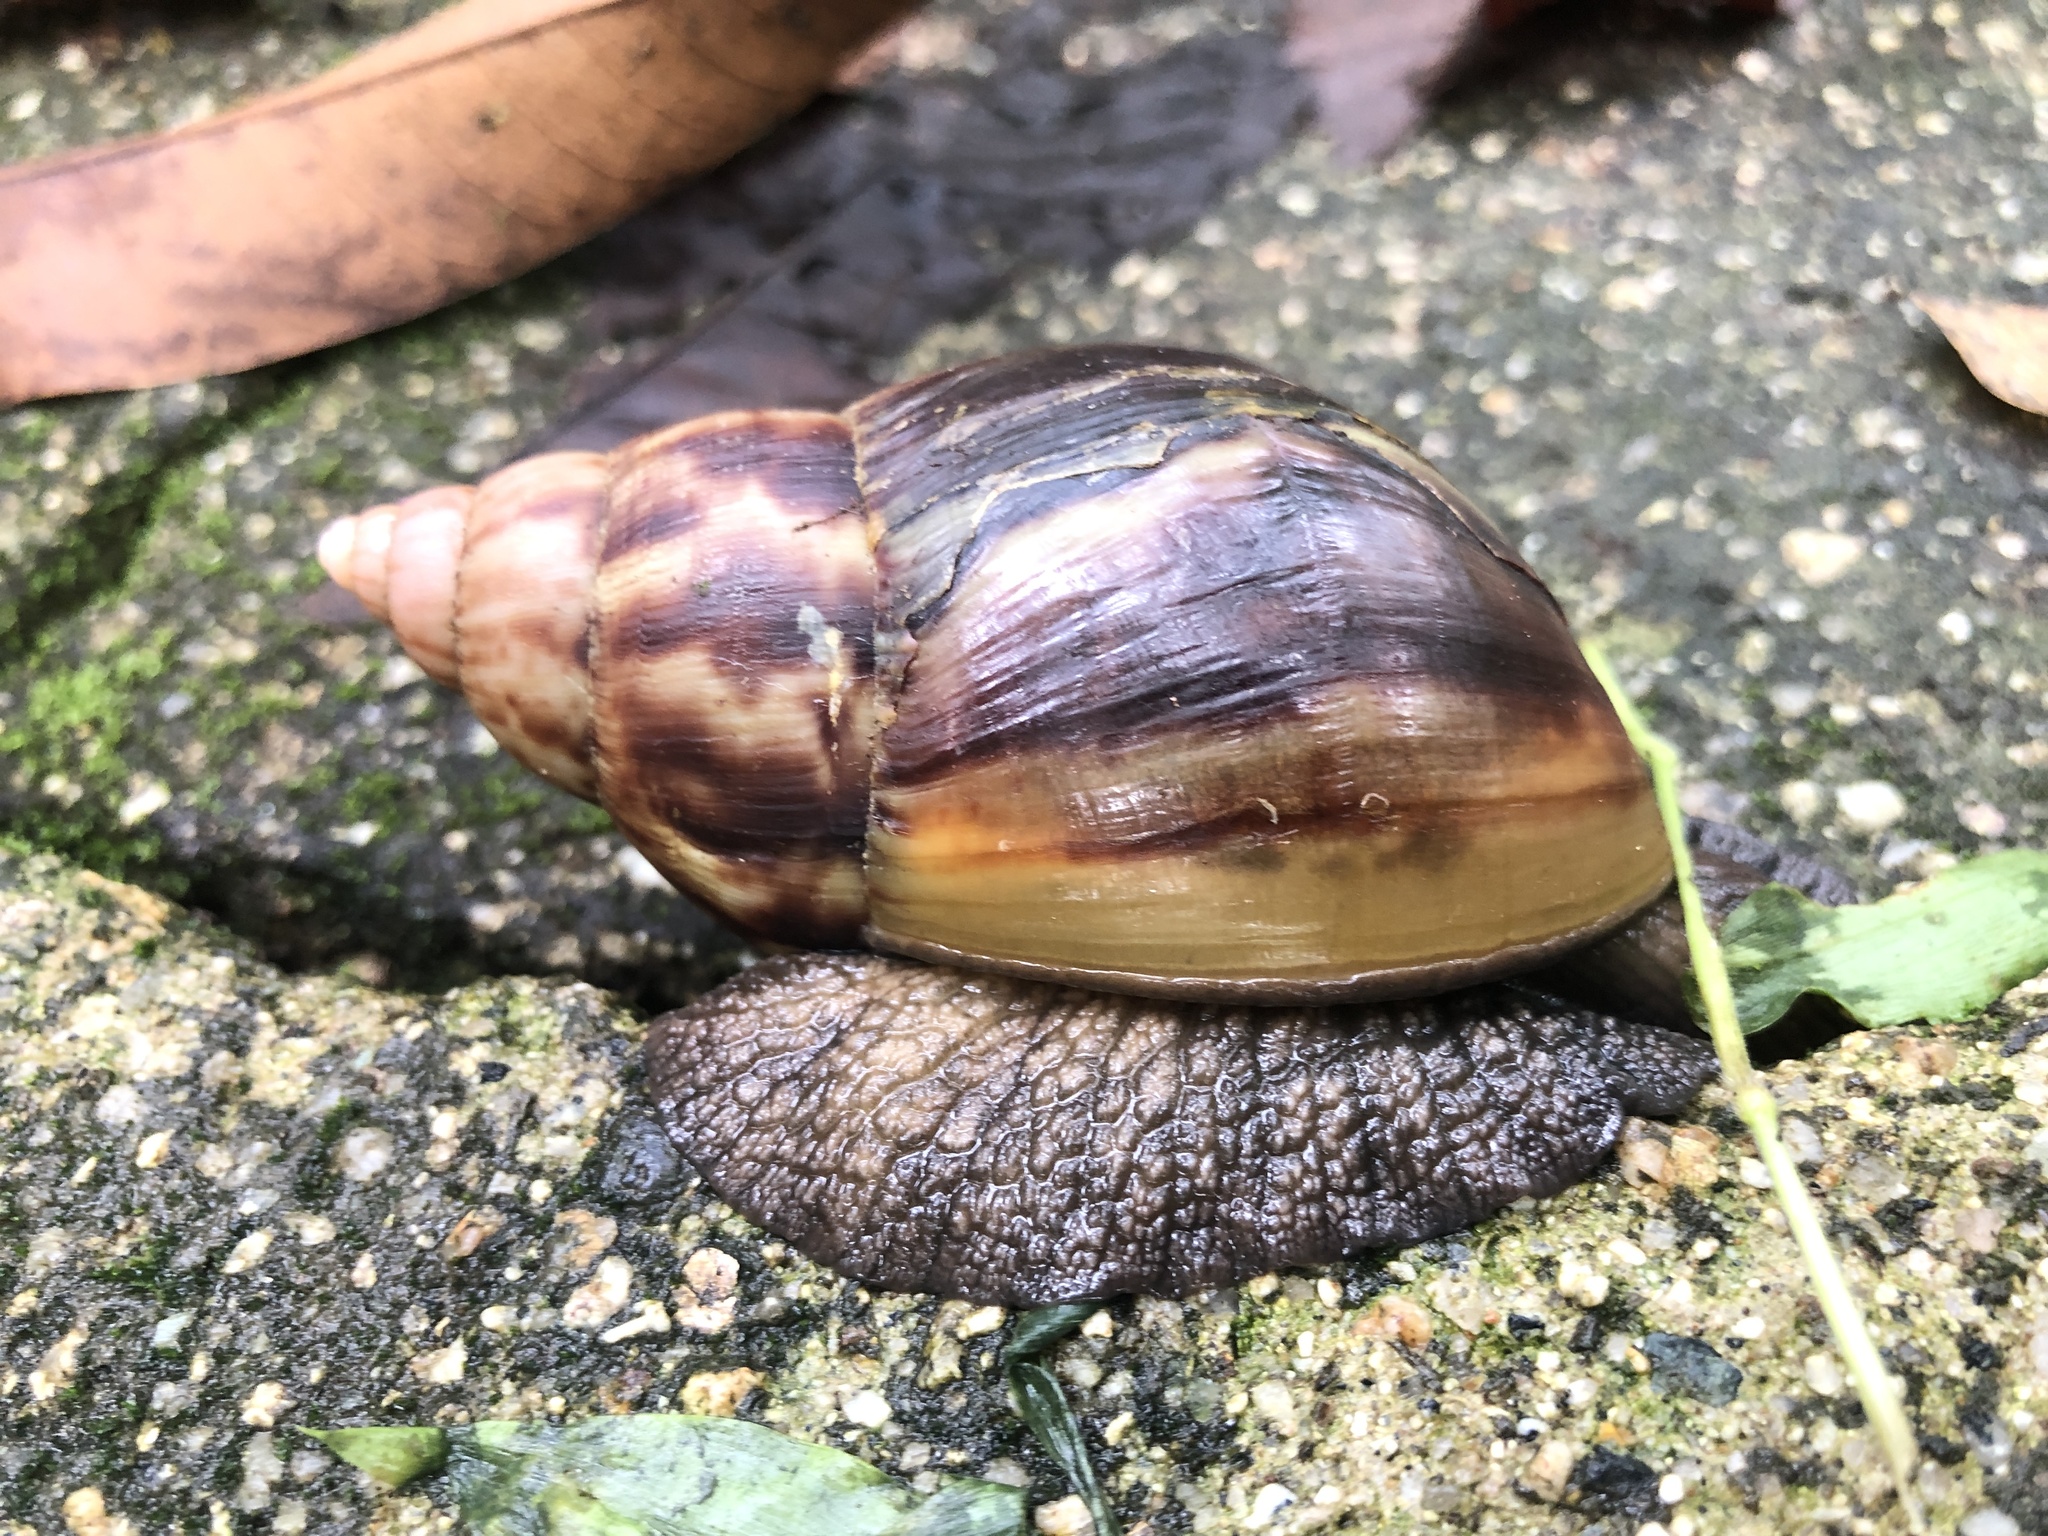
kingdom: Animalia
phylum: Mollusca
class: Gastropoda
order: Stylommatophora
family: Achatinidae
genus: Lissachatina
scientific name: Lissachatina fulica
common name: Giant african snail
